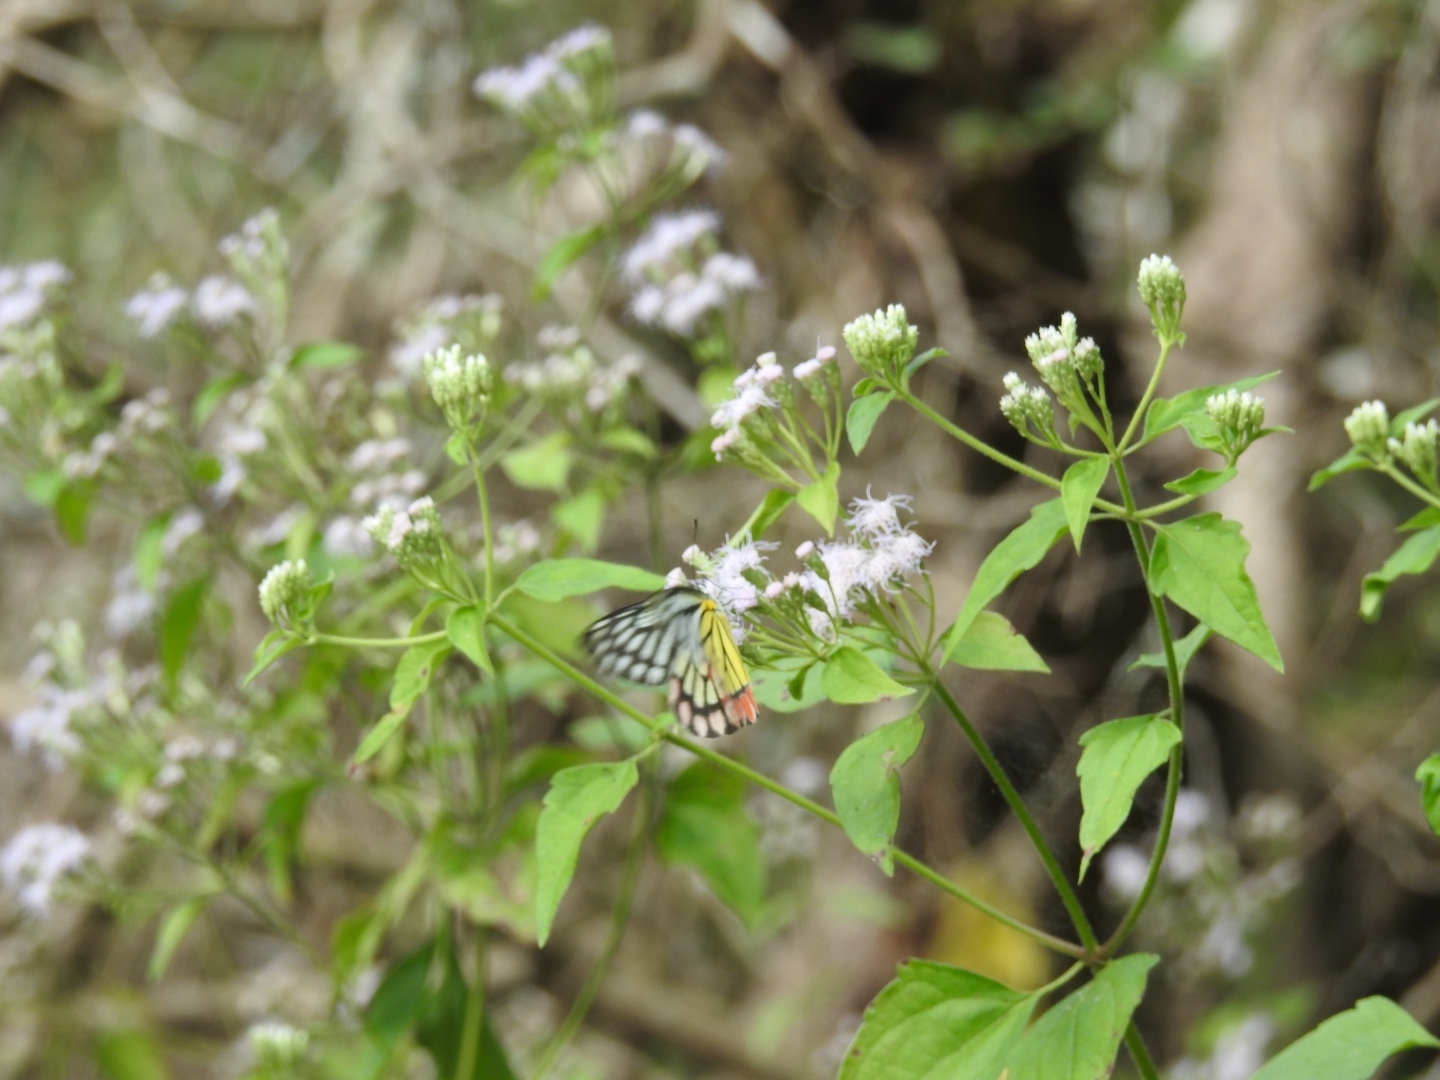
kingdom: Animalia
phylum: Arthropoda
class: Insecta
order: Lepidoptera
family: Pieridae
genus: Delias
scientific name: Delias eucharis
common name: Common jezebel
